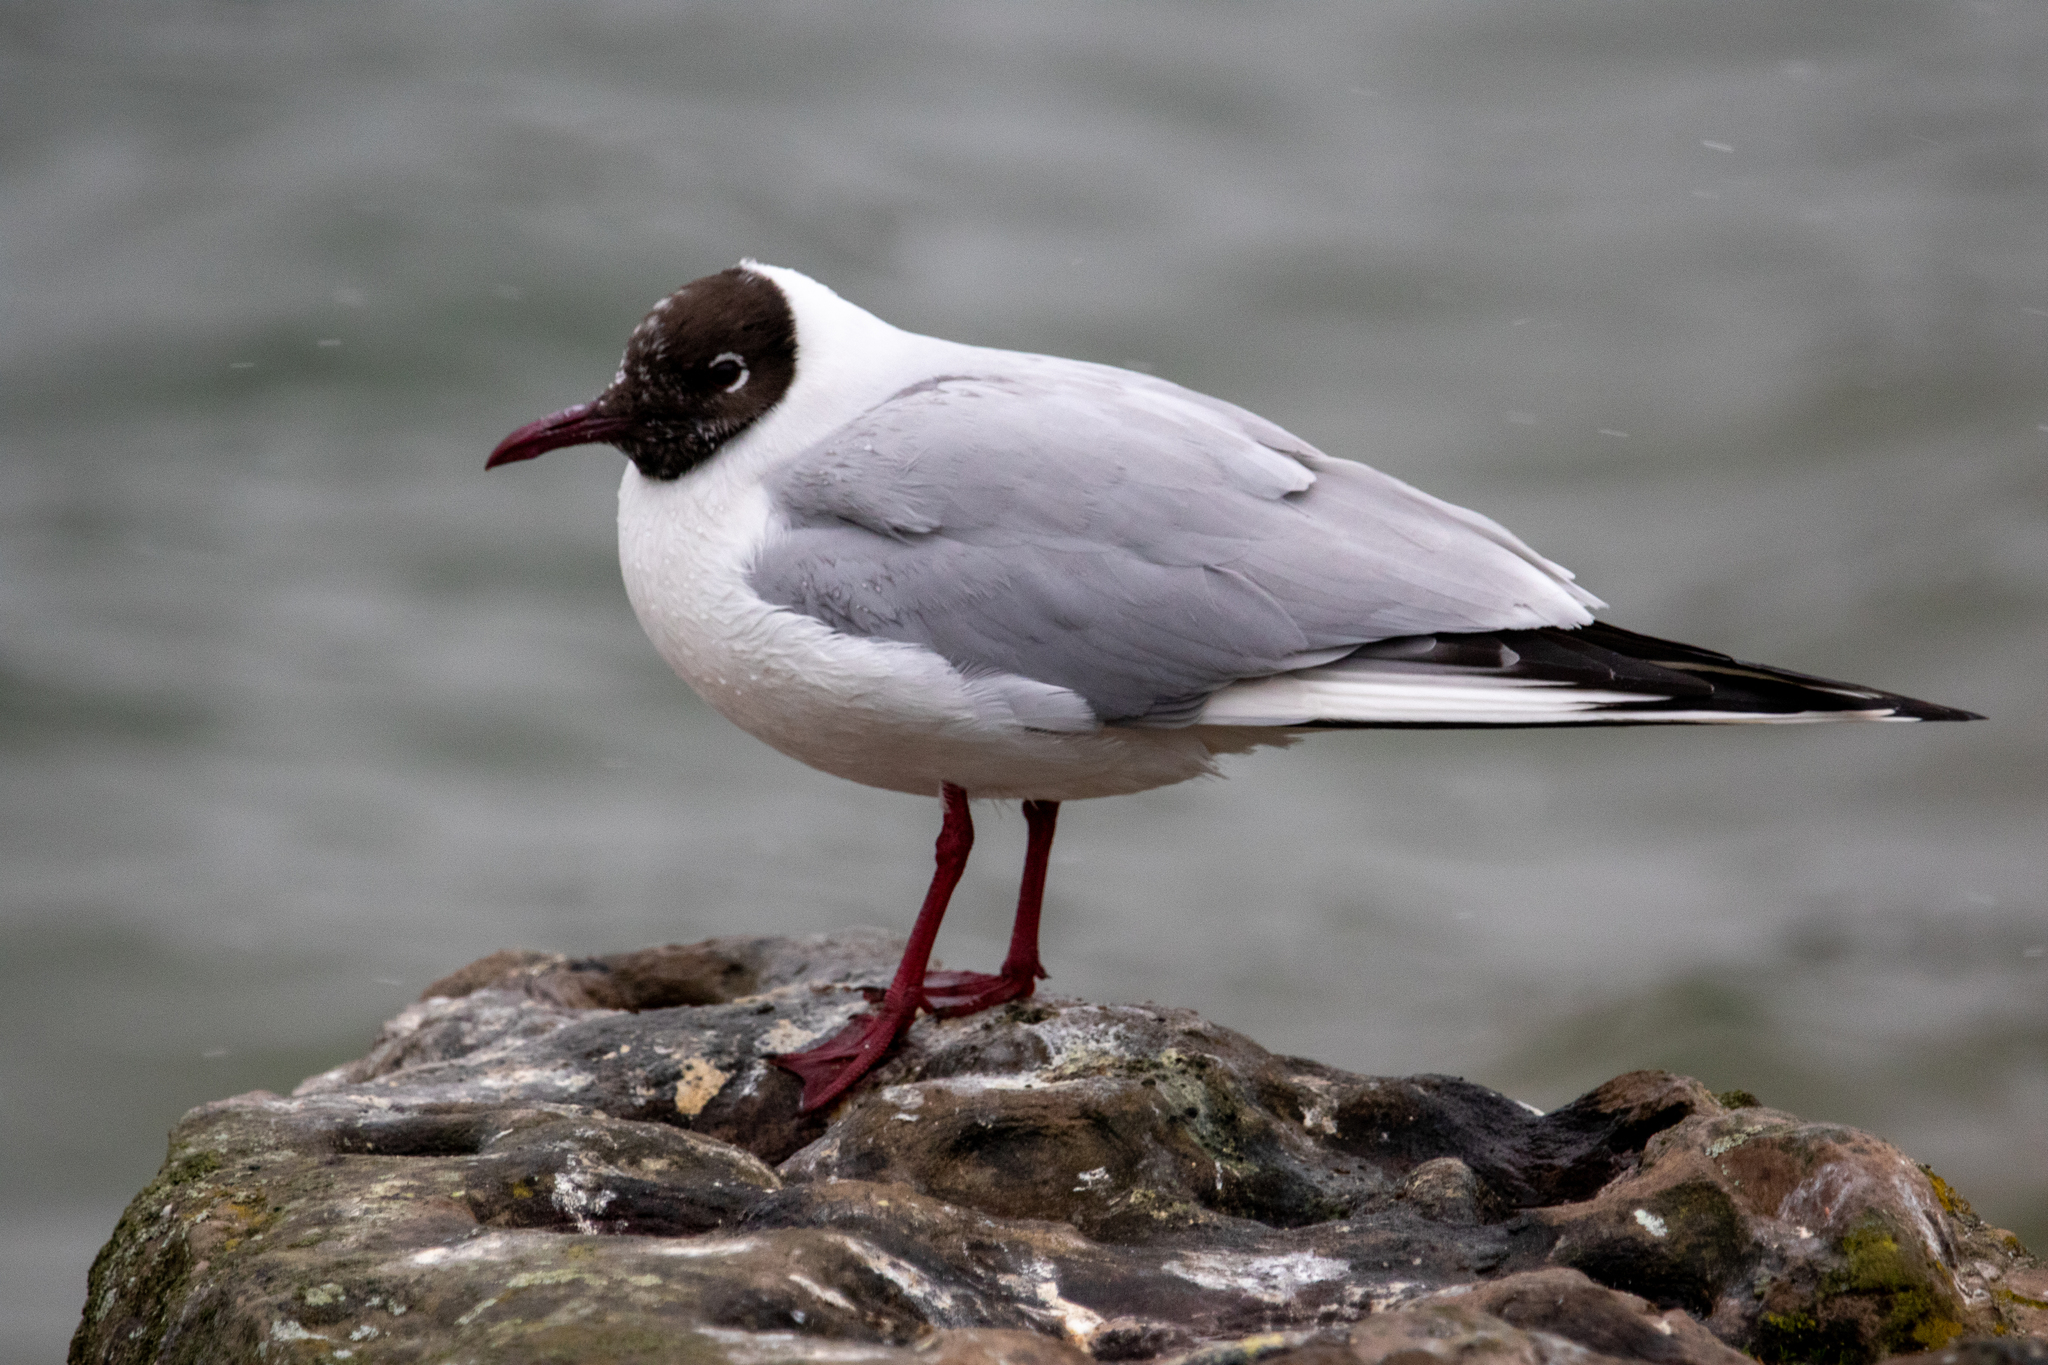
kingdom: Animalia
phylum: Chordata
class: Aves
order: Charadriiformes
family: Laridae
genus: Chroicocephalus
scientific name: Chroicocephalus ridibundus
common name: Black-headed gull
